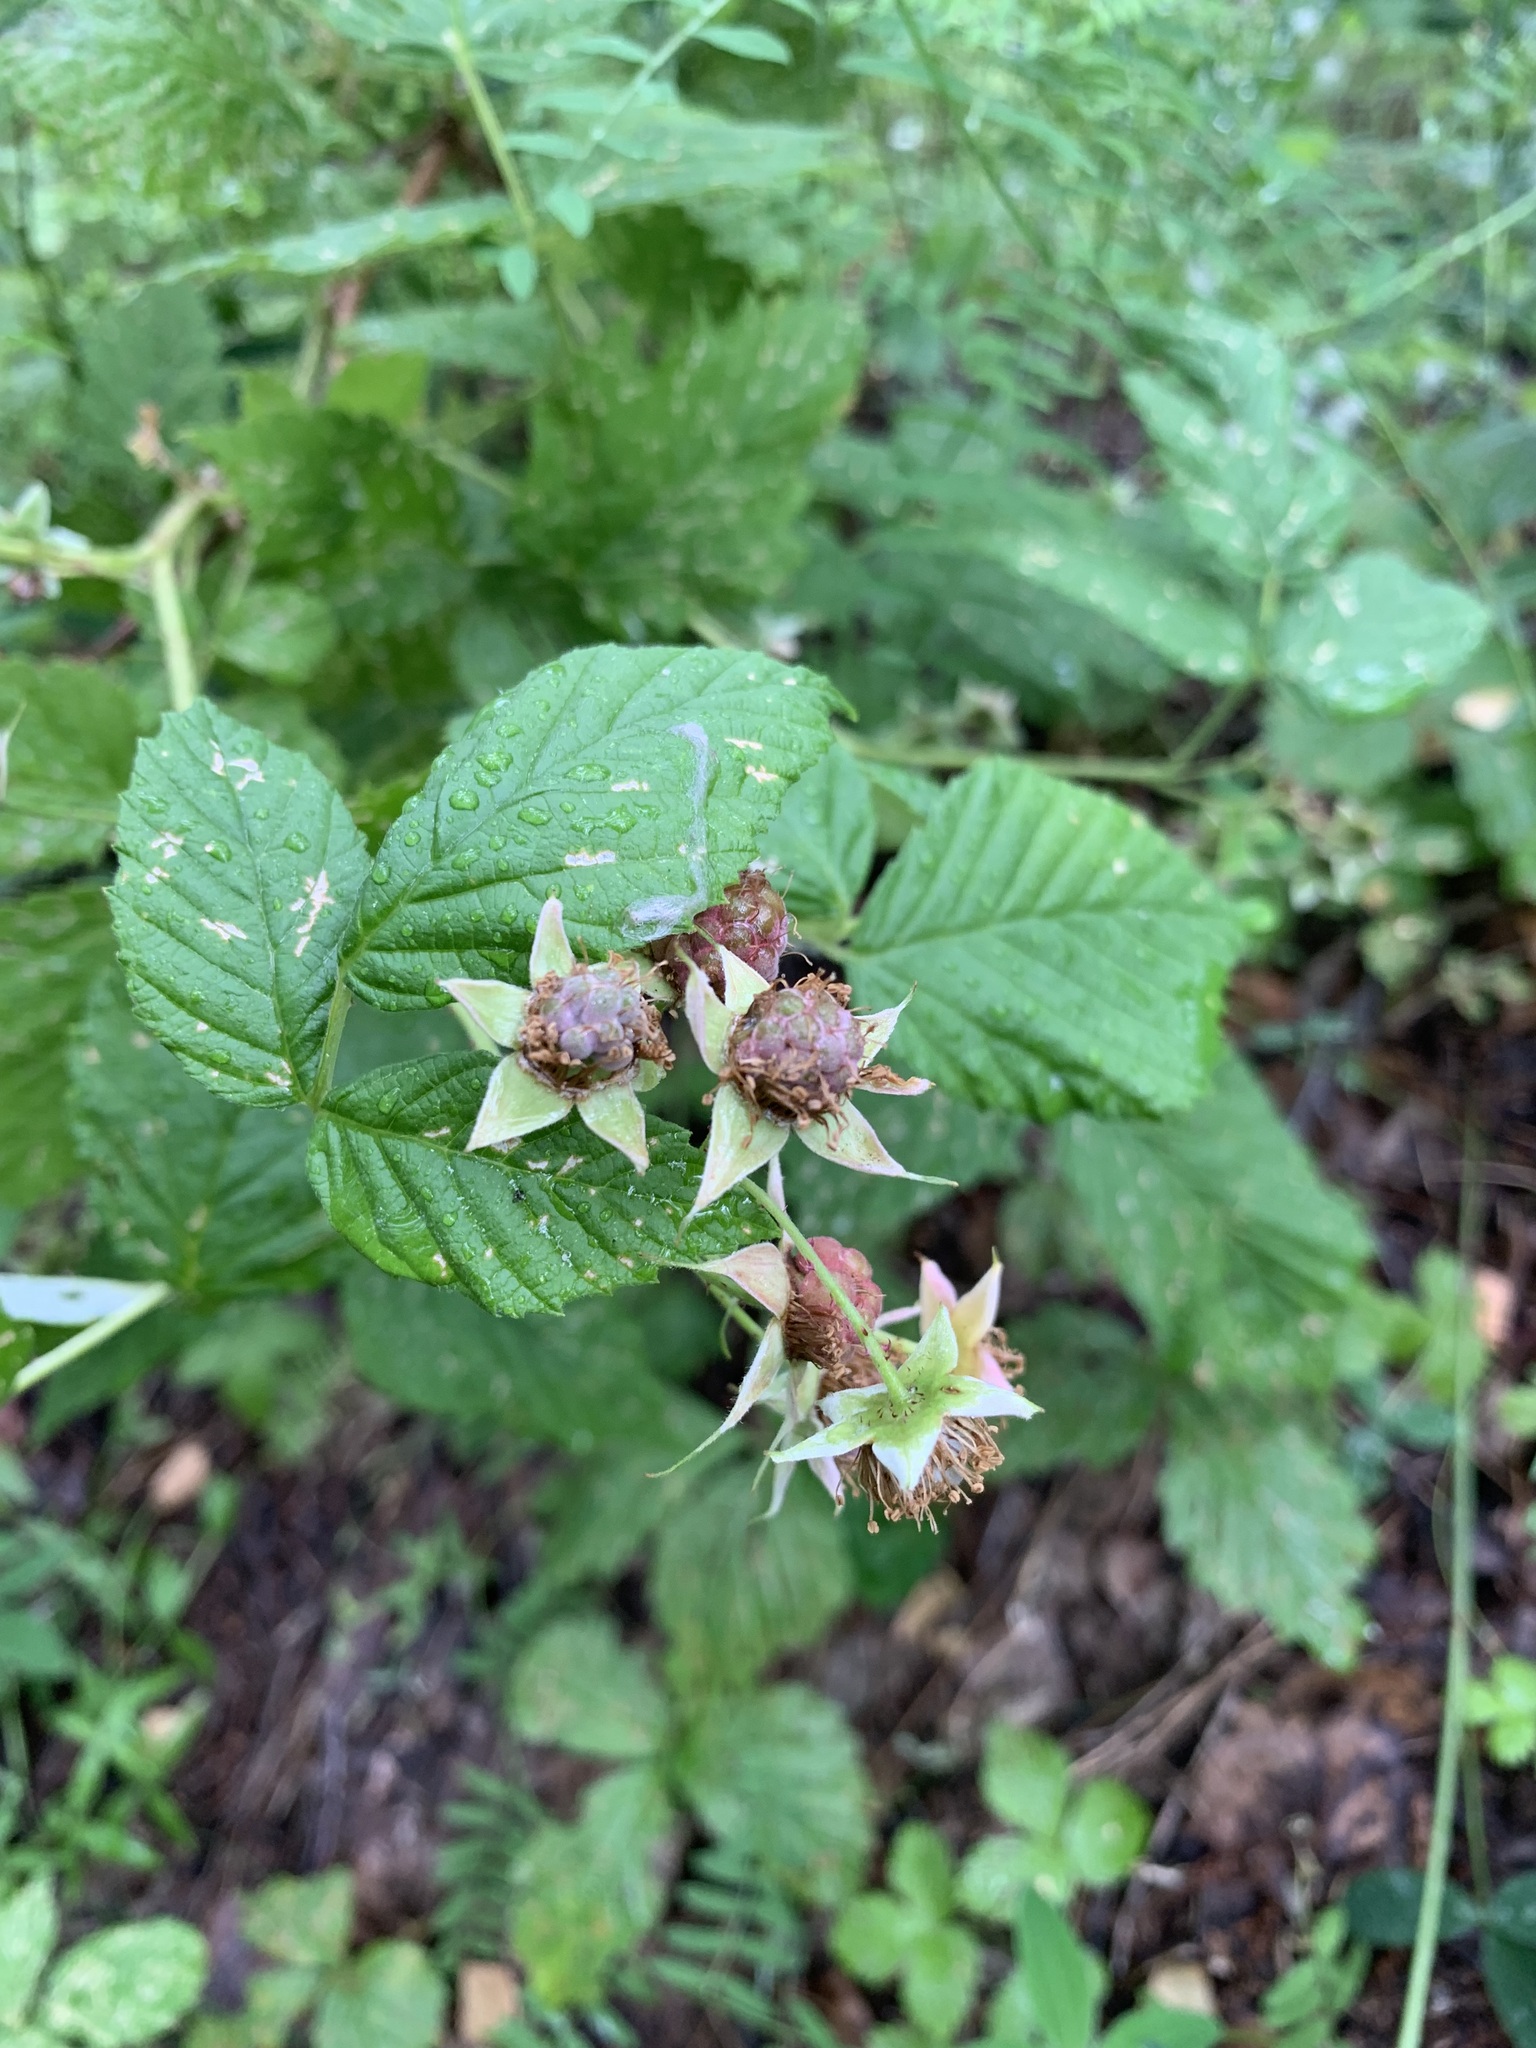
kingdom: Plantae
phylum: Tracheophyta
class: Magnoliopsida
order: Rosales
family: Rosaceae
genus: Rubus
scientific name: Rubus idaeus
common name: Raspberry
